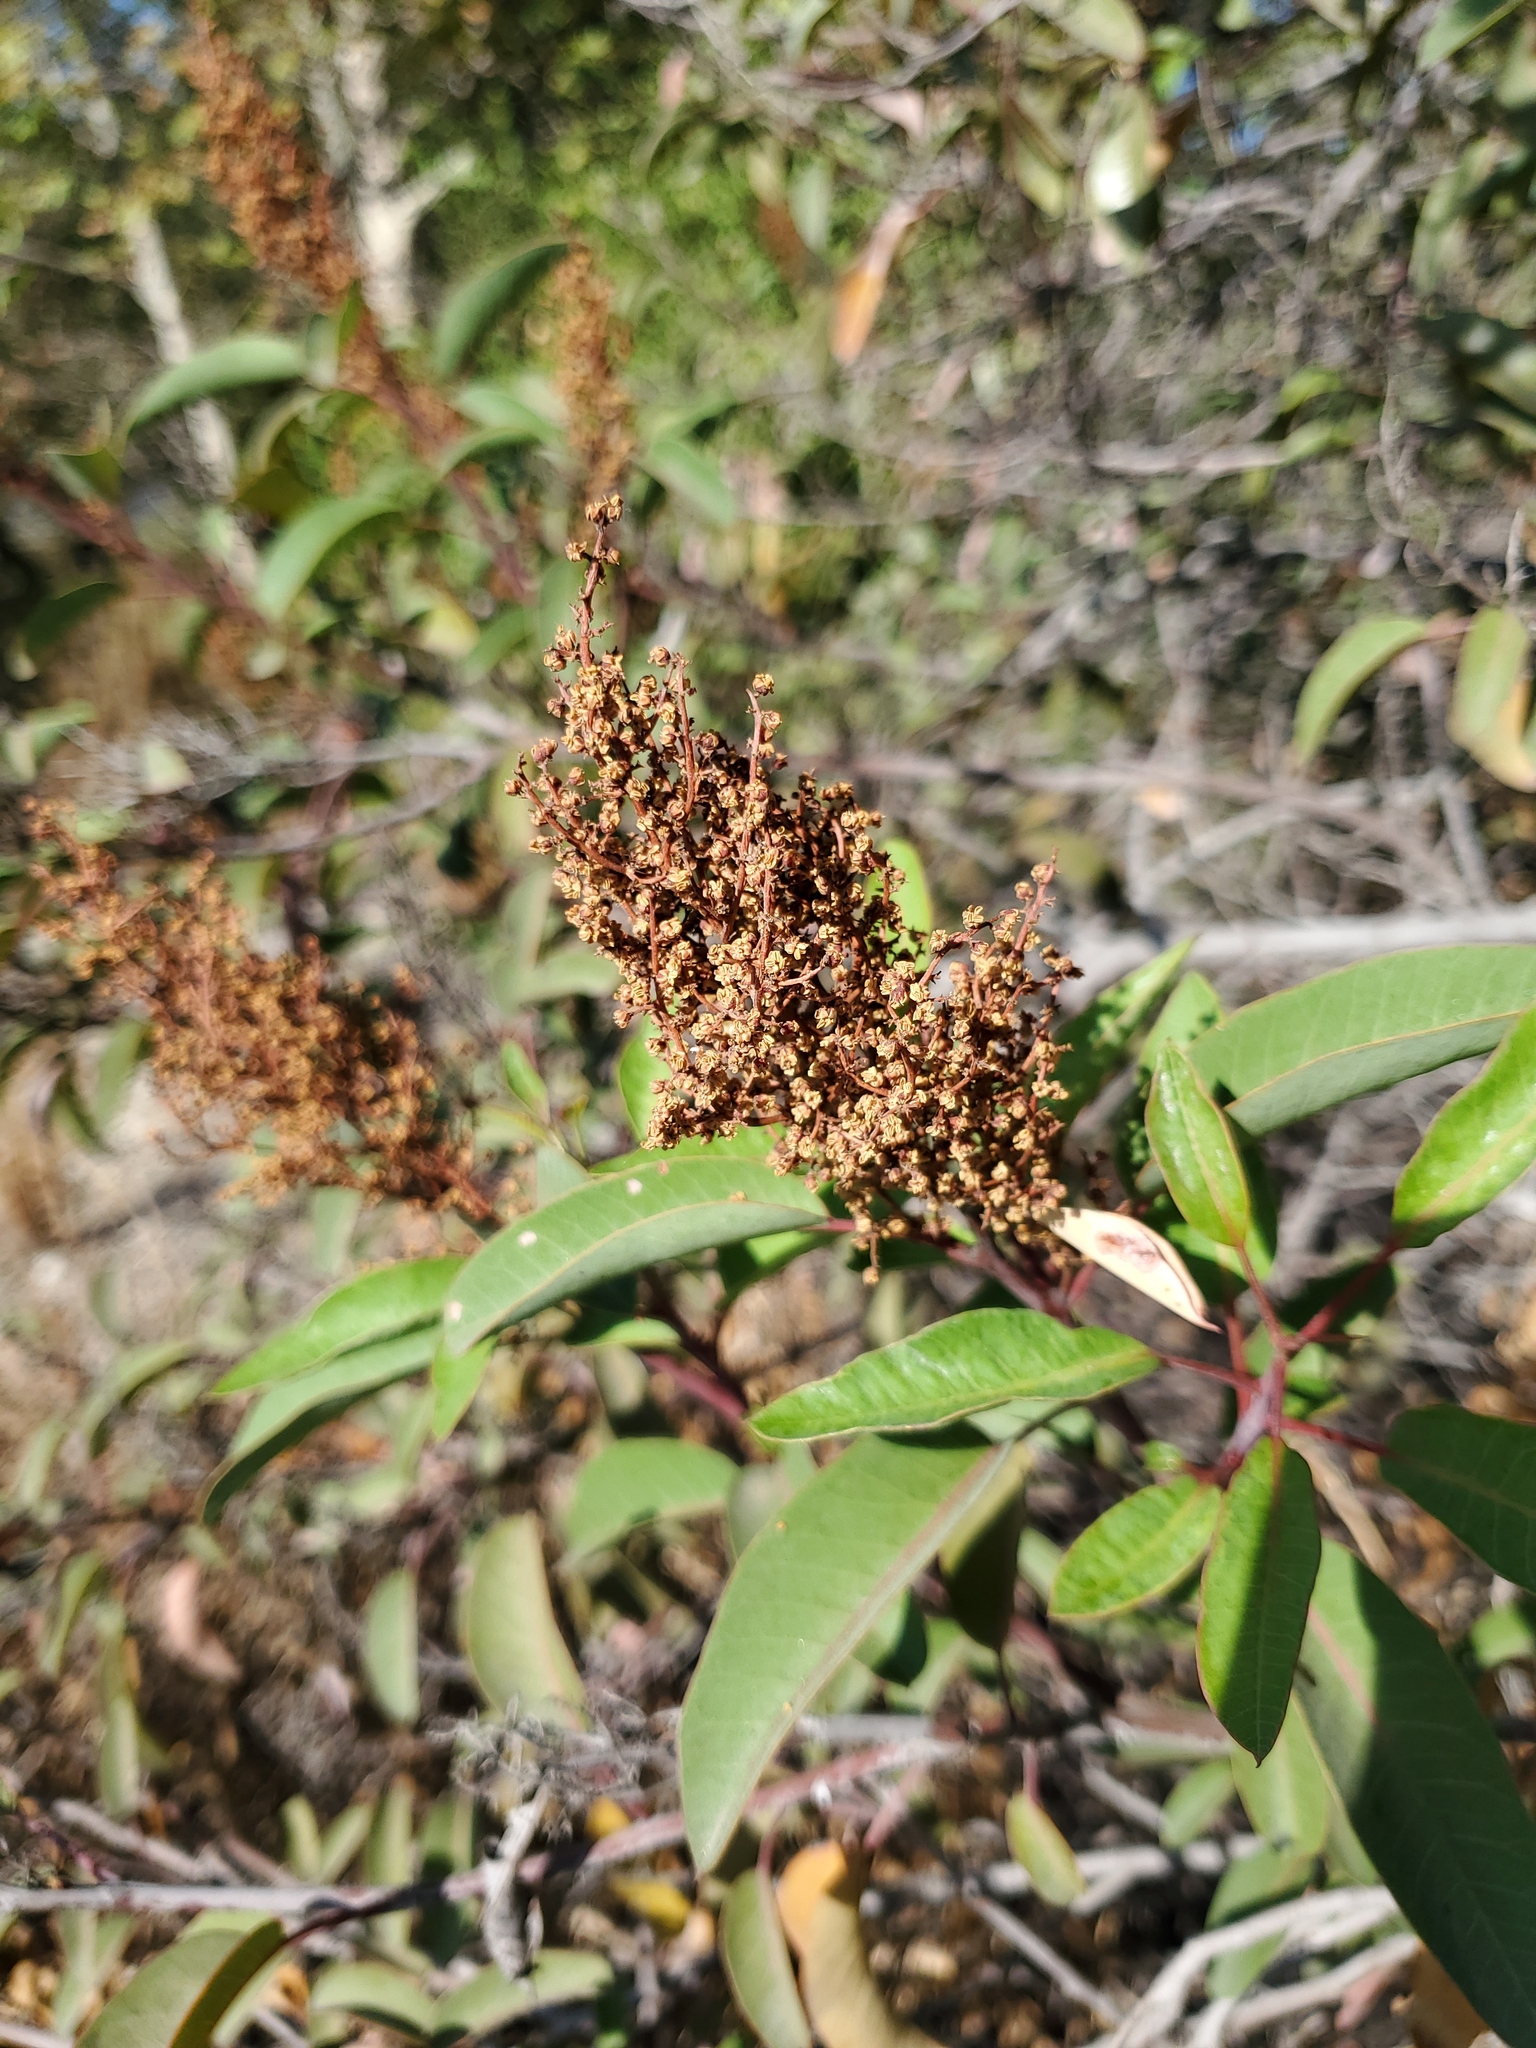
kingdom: Plantae
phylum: Tracheophyta
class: Magnoliopsida
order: Sapindales
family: Anacardiaceae
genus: Malosma
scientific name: Malosma laurina
